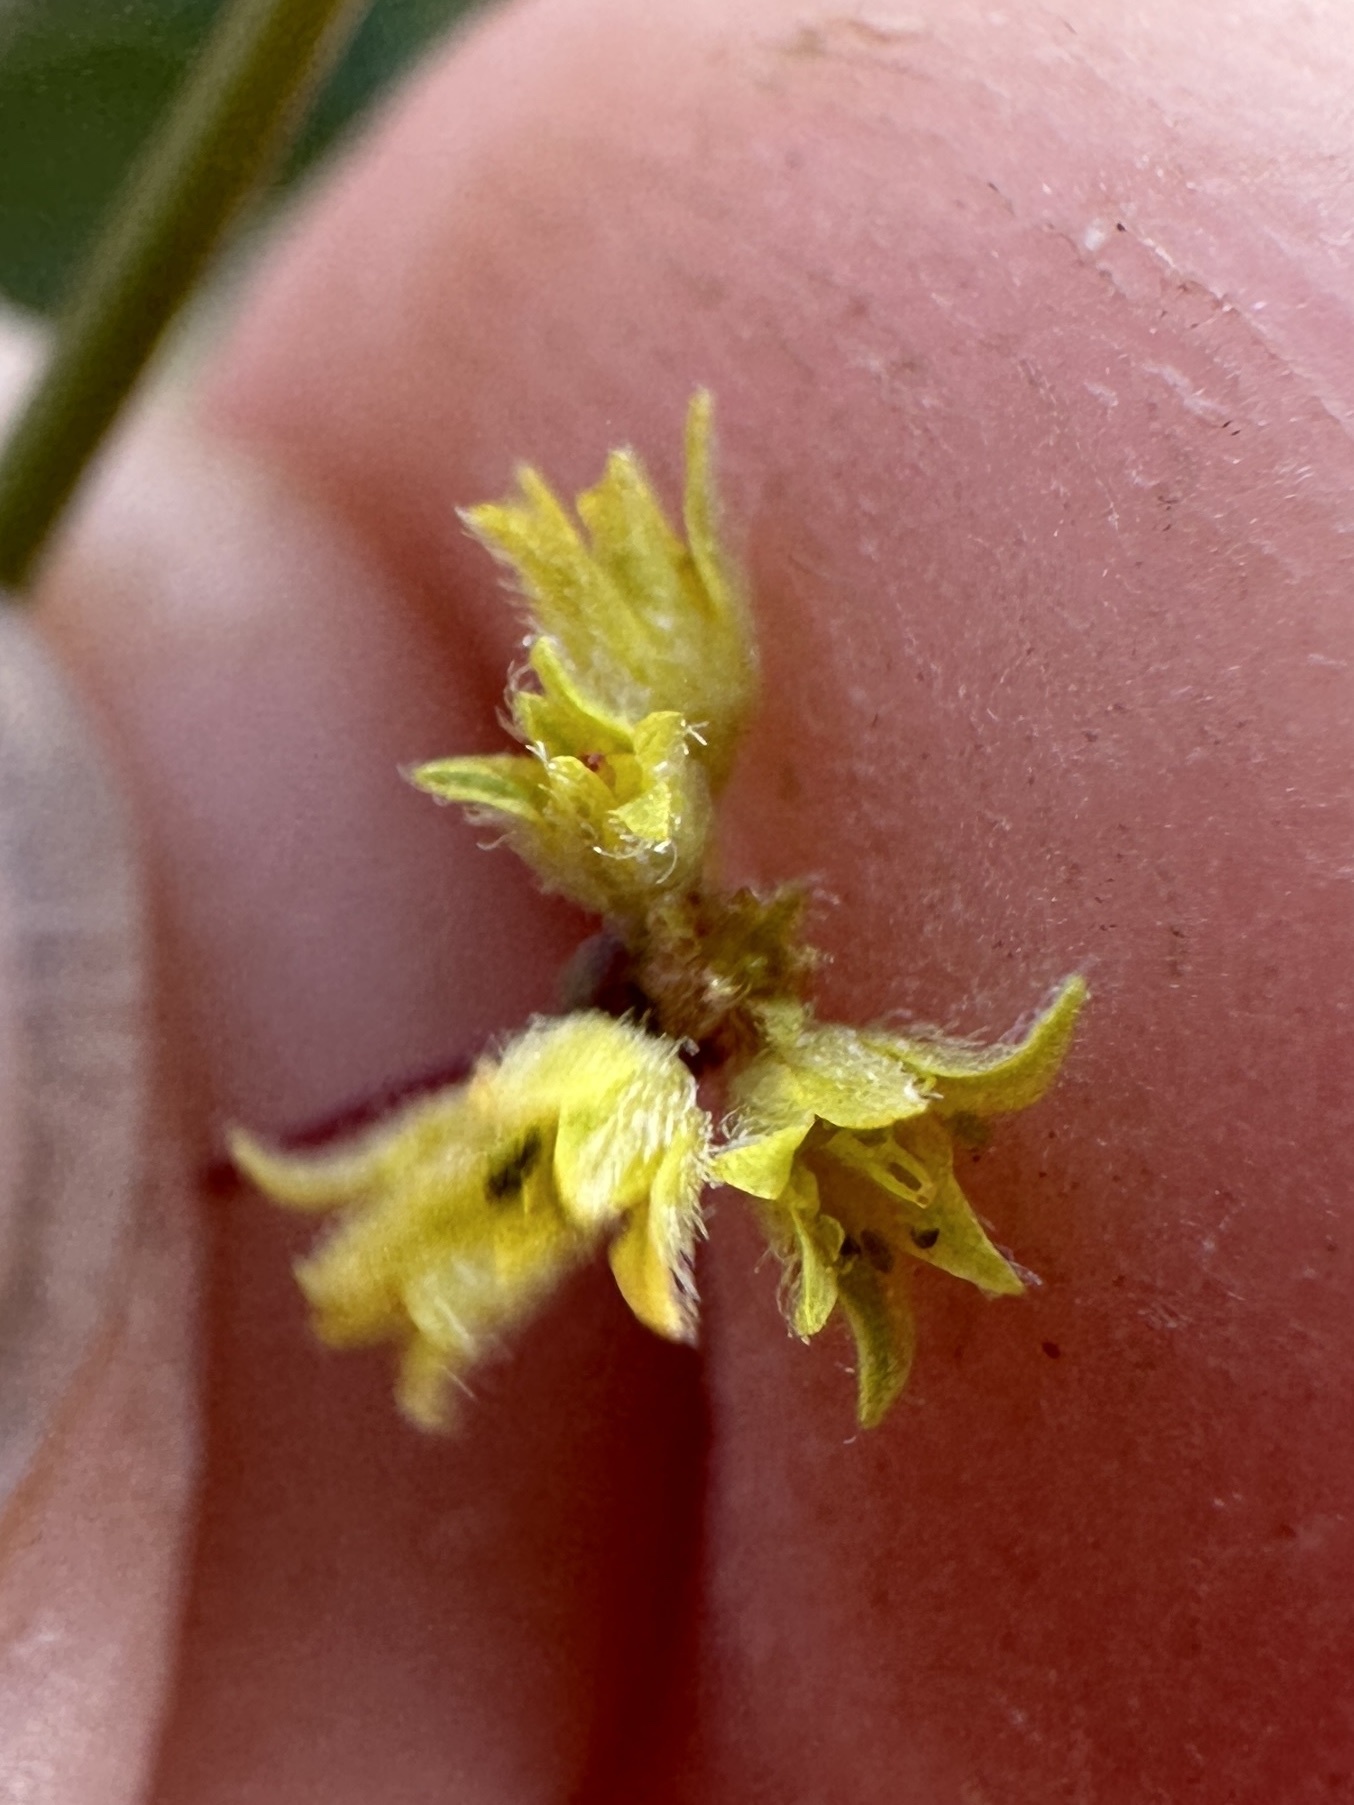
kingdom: Plantae
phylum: Tracheophyta
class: Magnoliopsida
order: Caryophyllales
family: Polygonaceae
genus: Eriogonum
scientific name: Eriogonum contiguum
